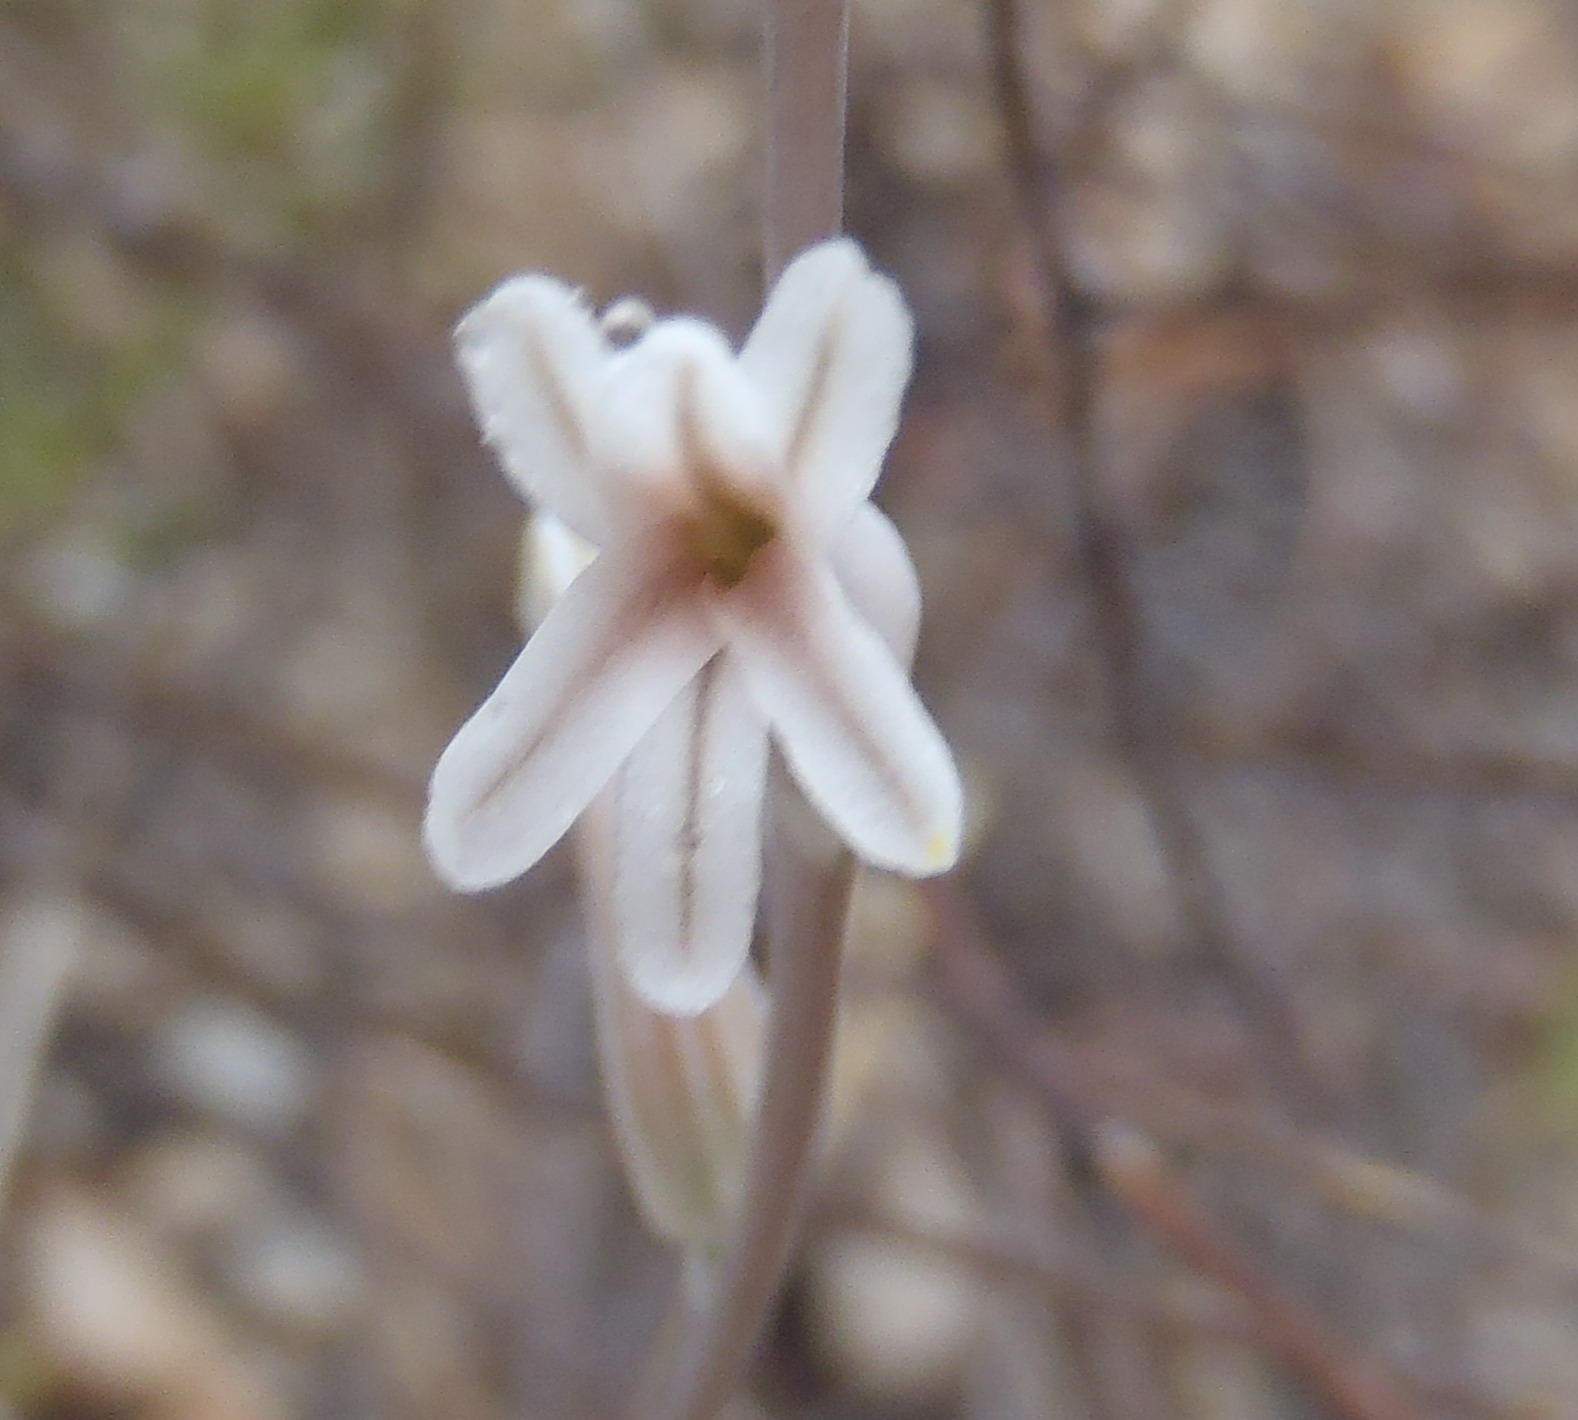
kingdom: Plantae
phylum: Tracheophyta
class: Liliopsida
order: Asparagales
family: Asphodelaceae
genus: Haworthia
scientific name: Haworthia cooperi
